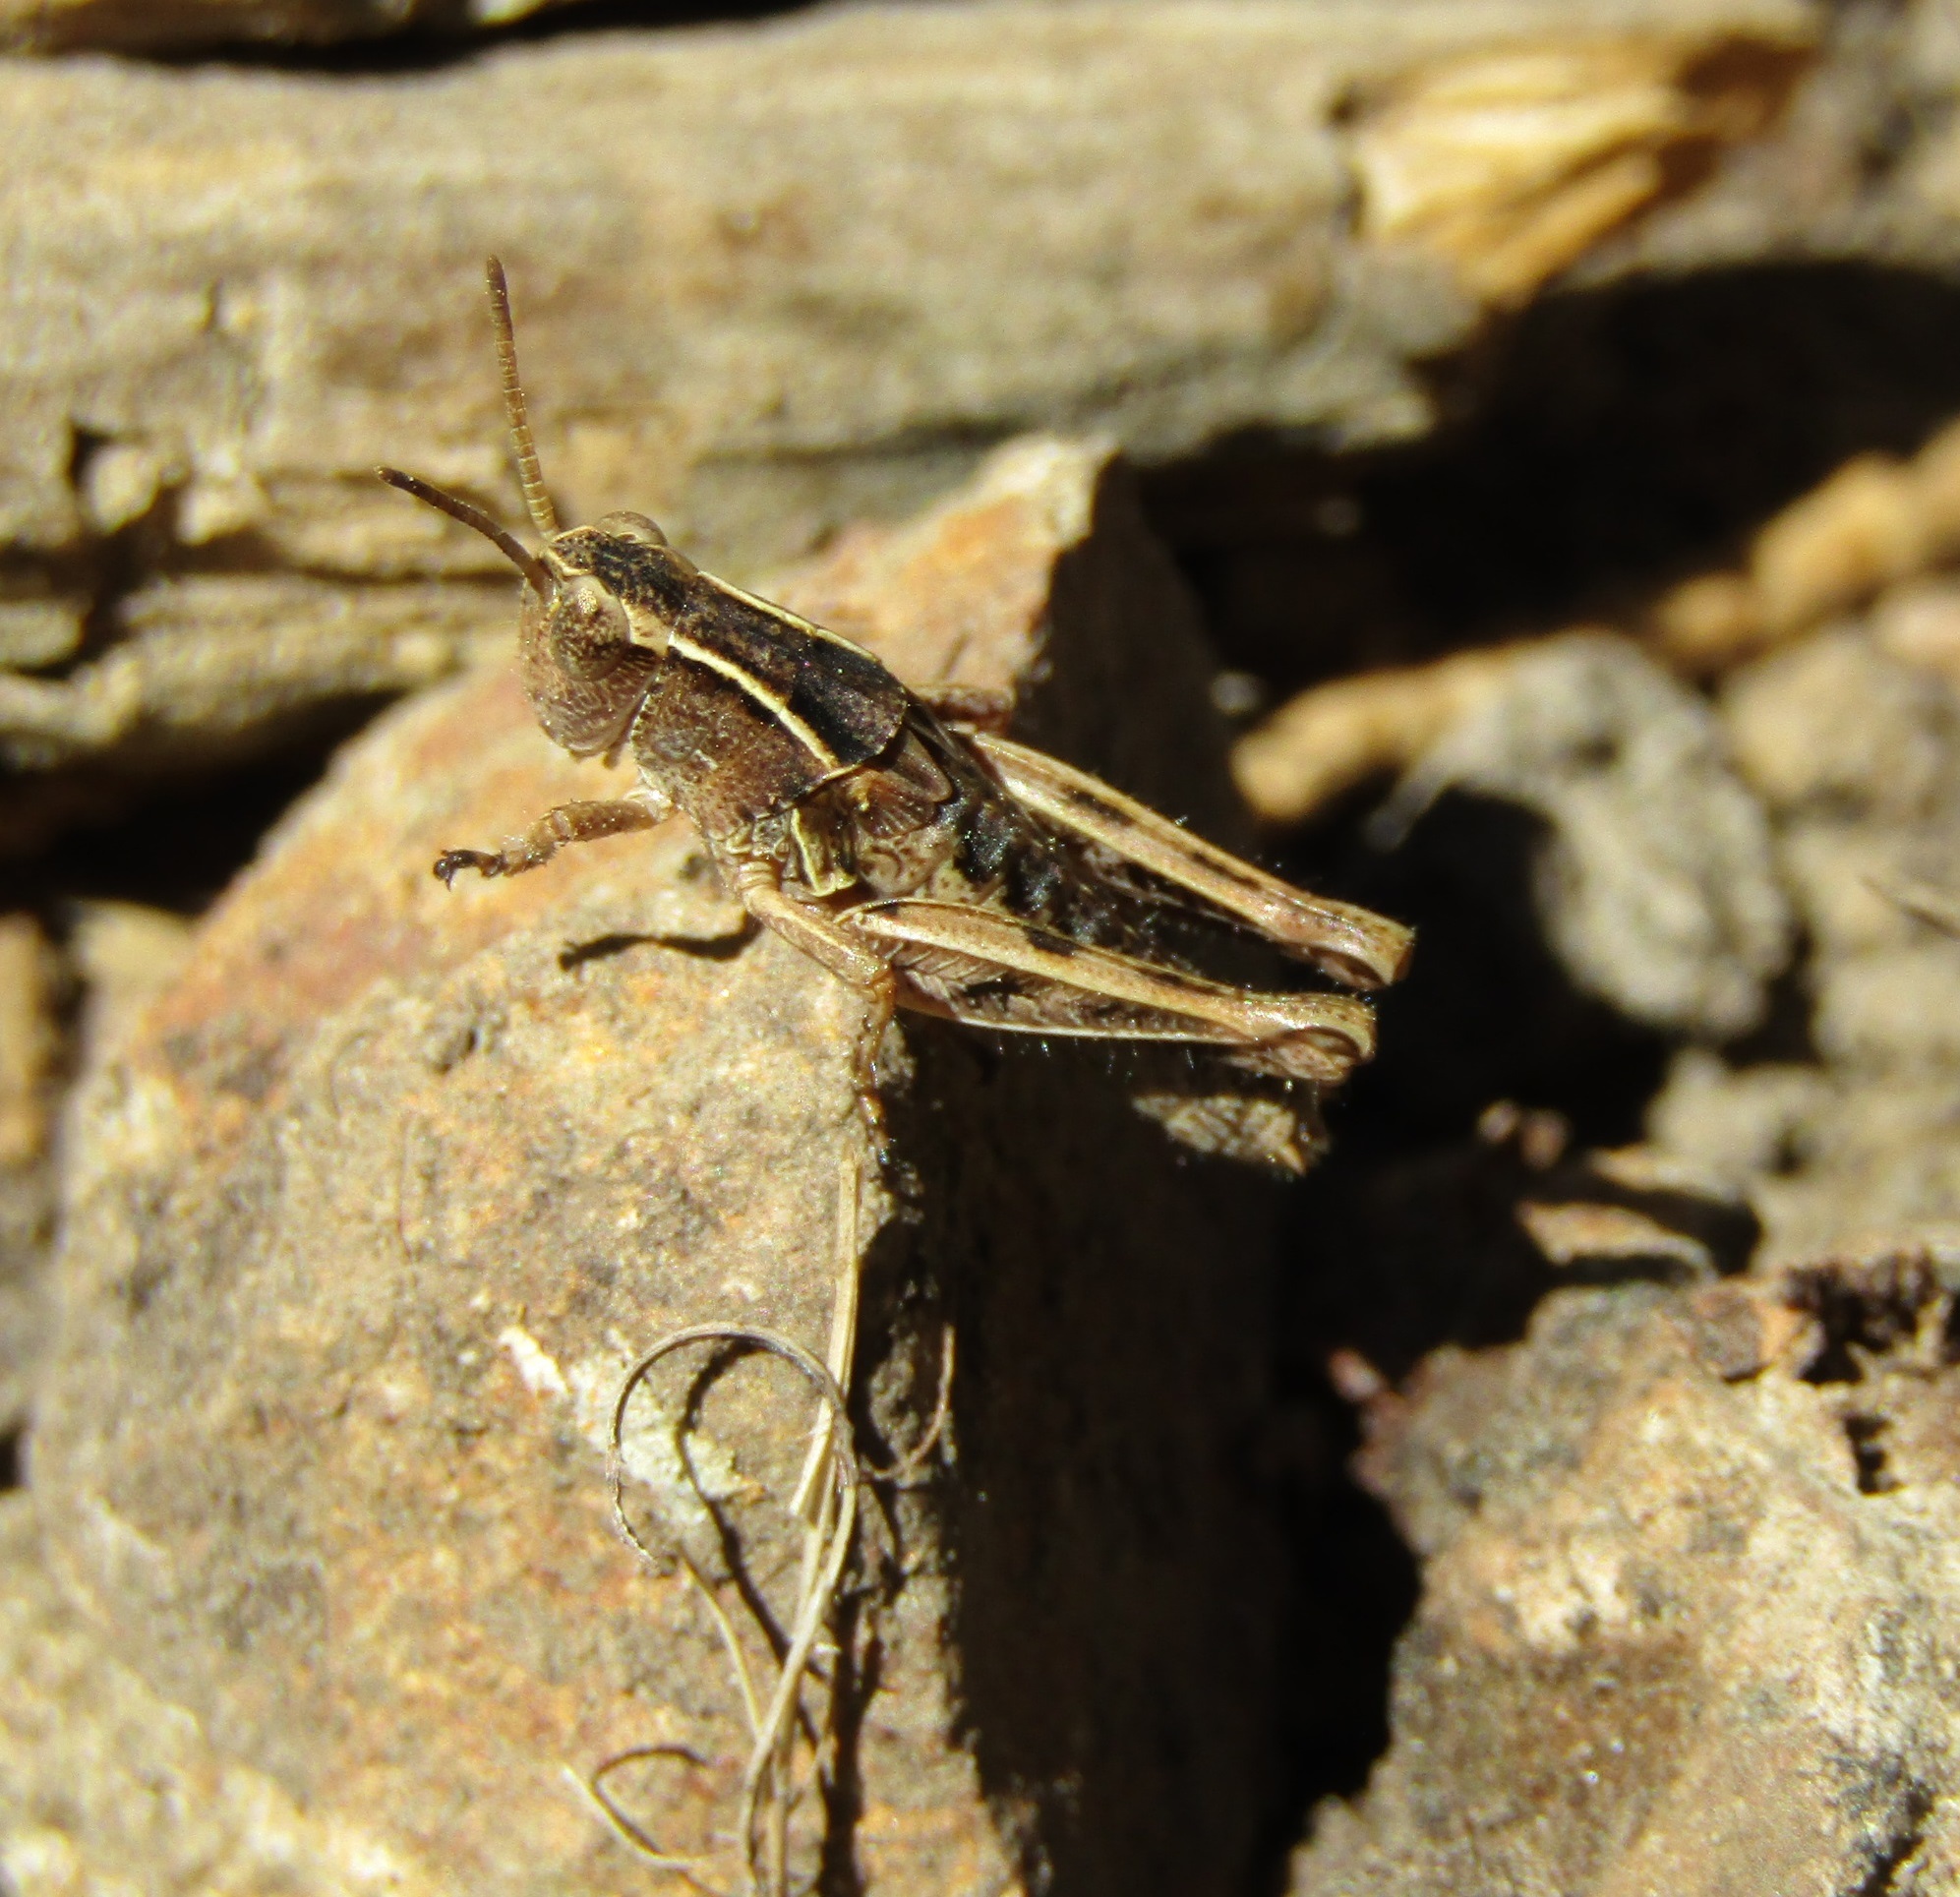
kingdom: Animalia
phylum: Arthropoda
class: Insecta
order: Orthoptera
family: Acrididae
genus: Phaulacridium
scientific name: Phaulacridium marginale
